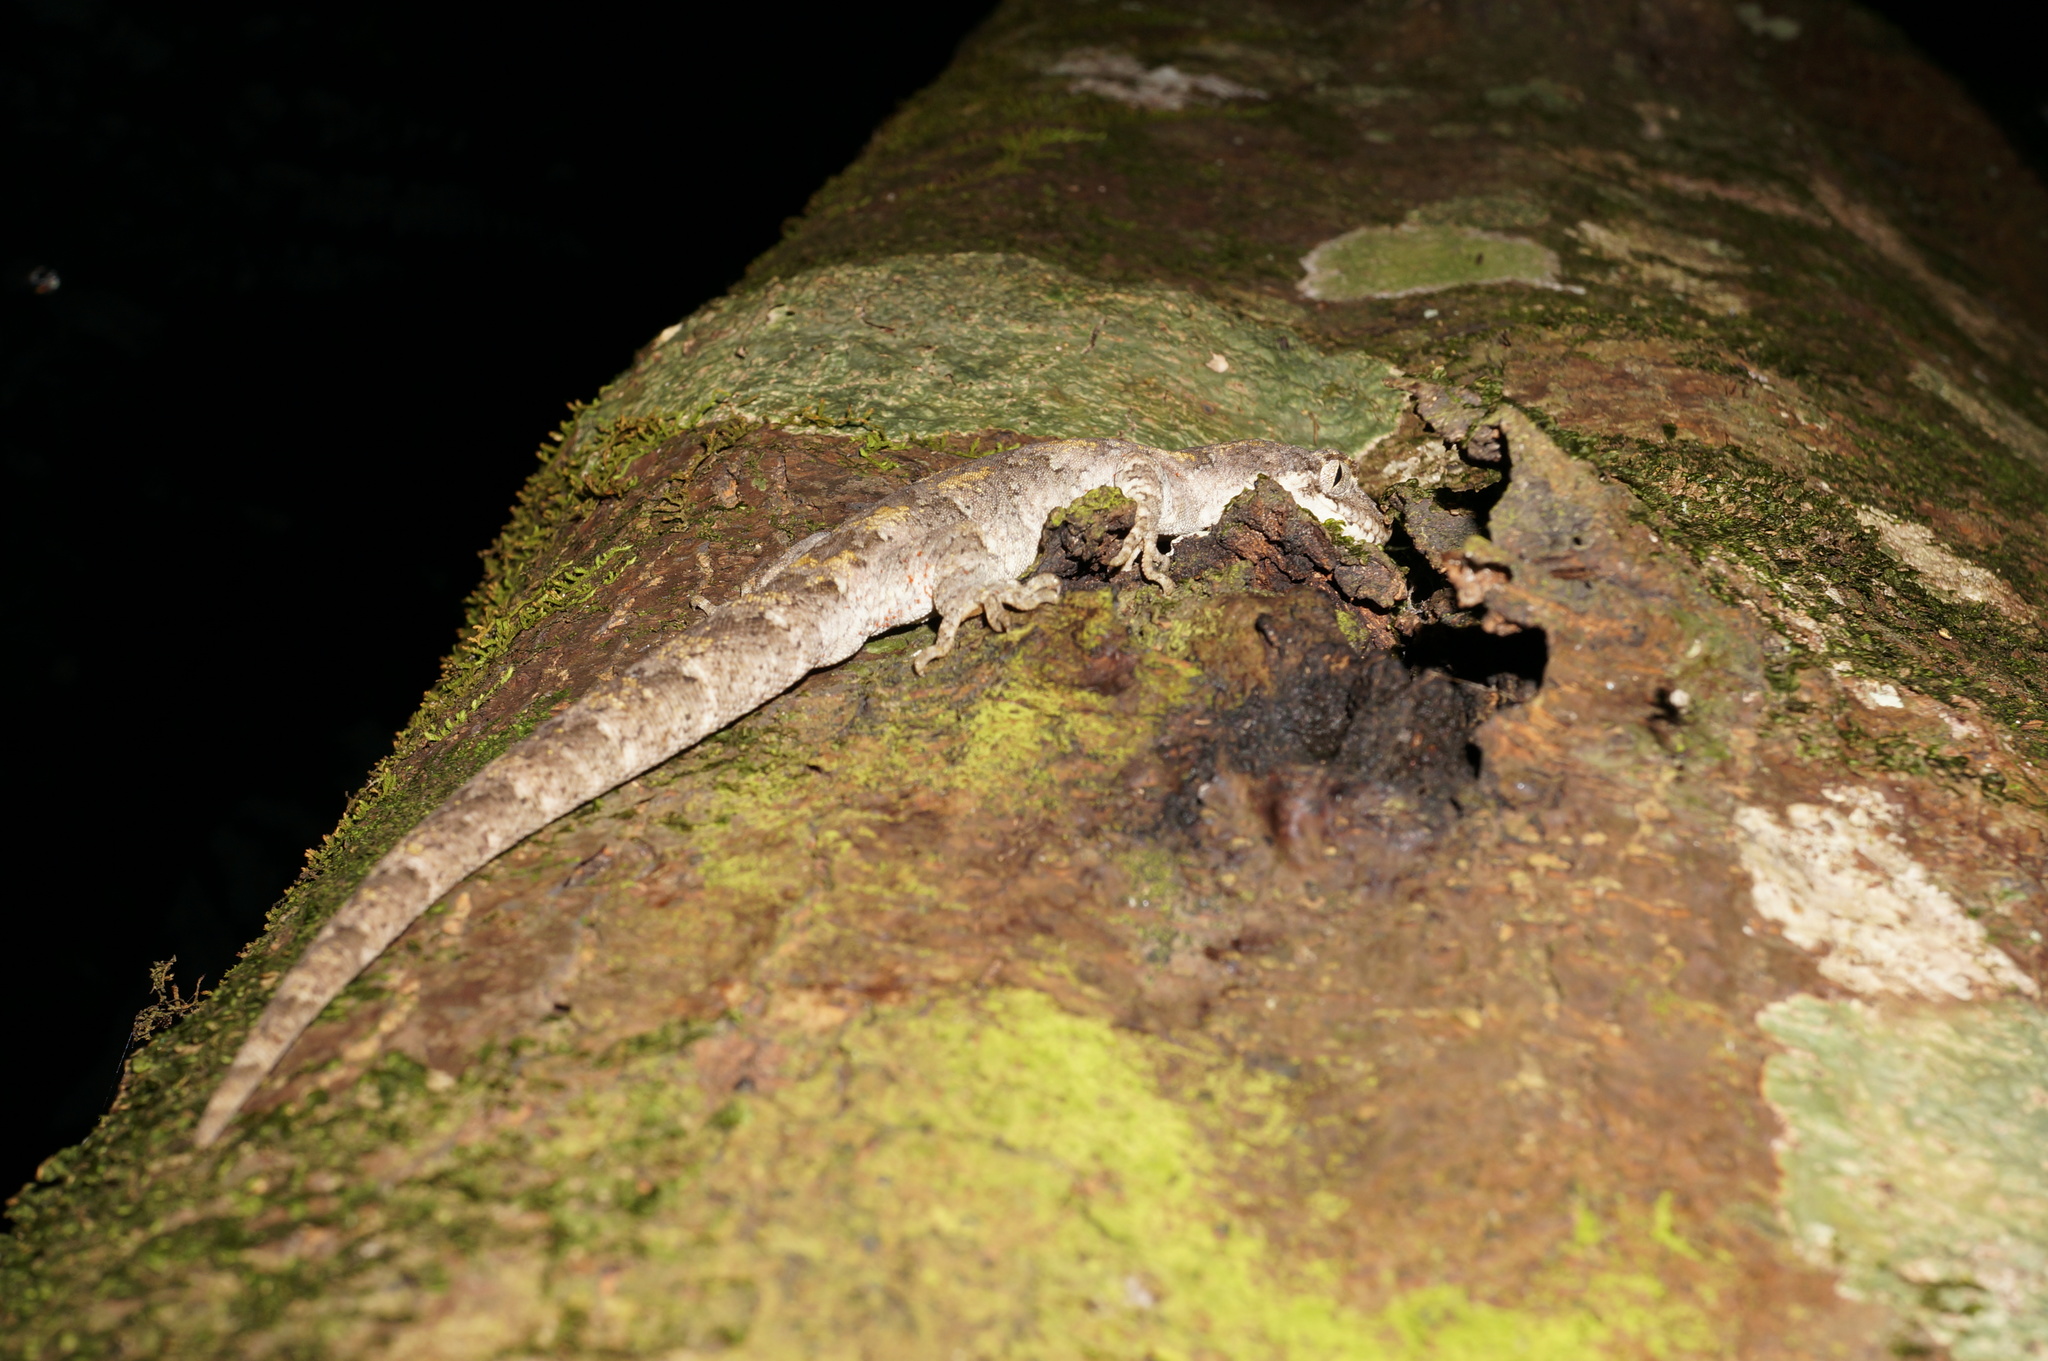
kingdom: Animalia
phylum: Chordata
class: Squamata
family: Diplodactylidae
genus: Mokopirirakau
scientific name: Mokopirirakau granulatus
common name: Forest gecko
